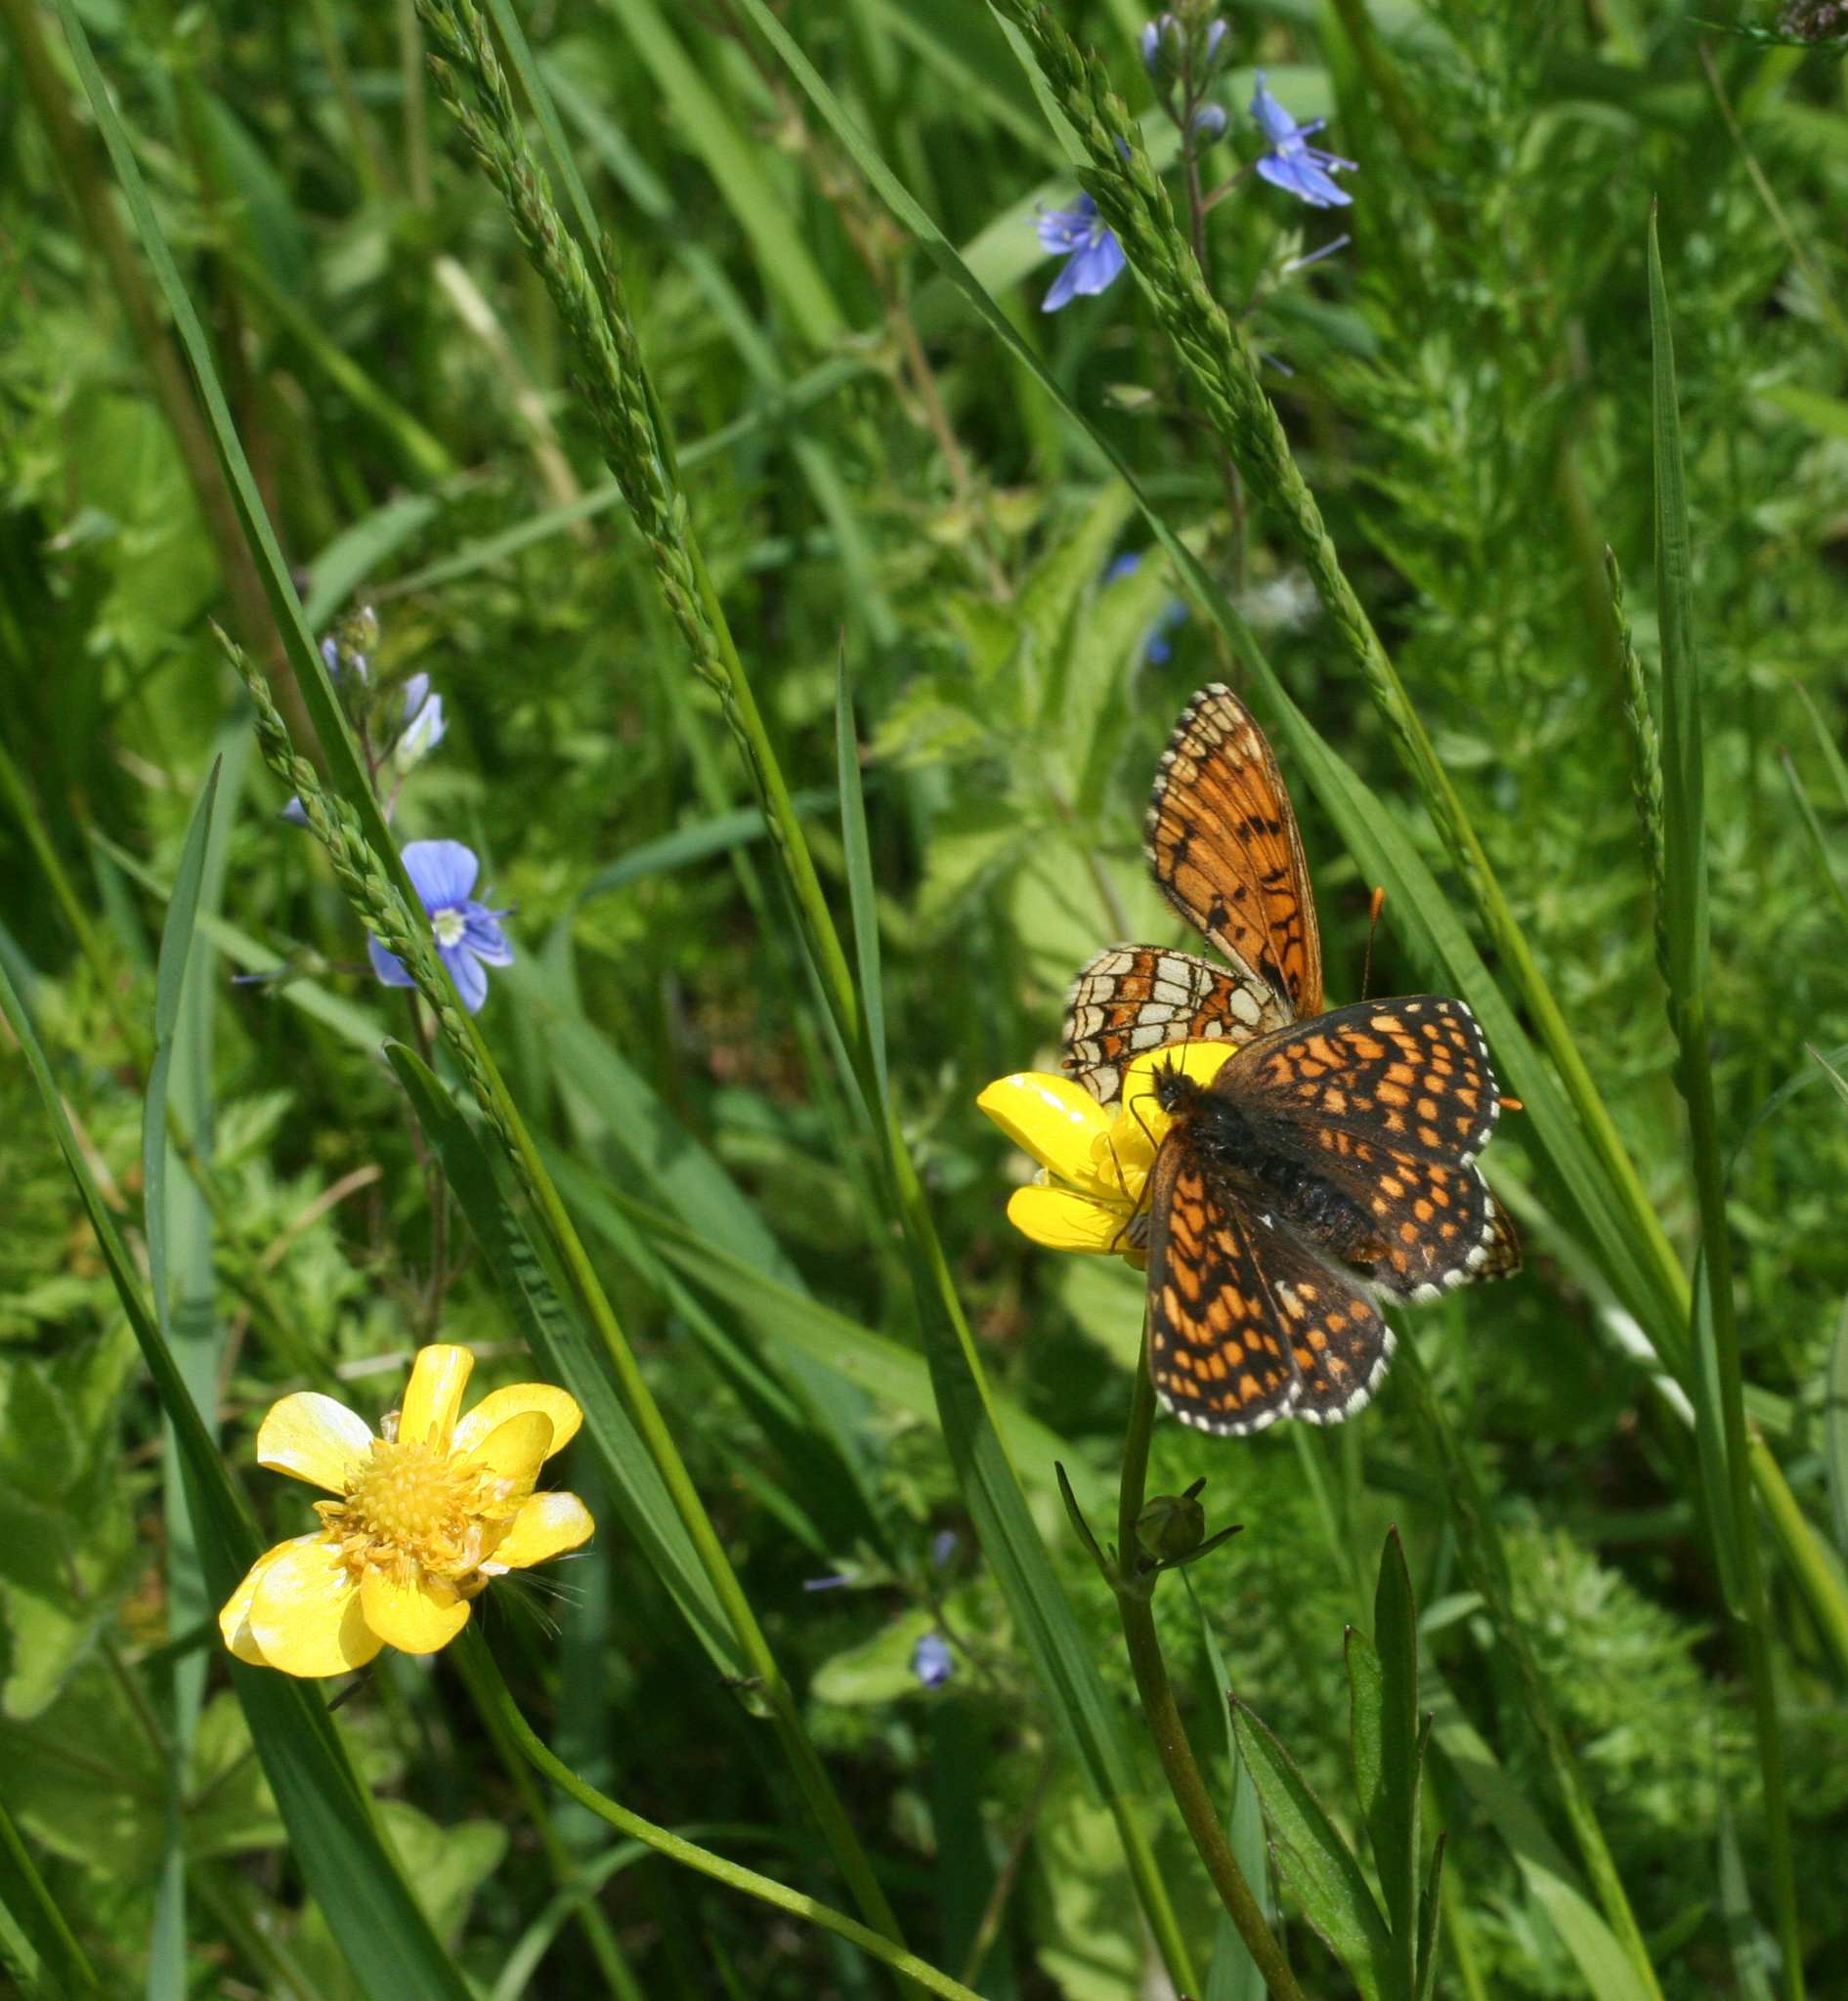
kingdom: Animalia
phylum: Arthropoda
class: Insecta
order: Lepidoptera
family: Nymphalidae
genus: Melitaea
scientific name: Melitaea athalia
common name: Heath fritillary
